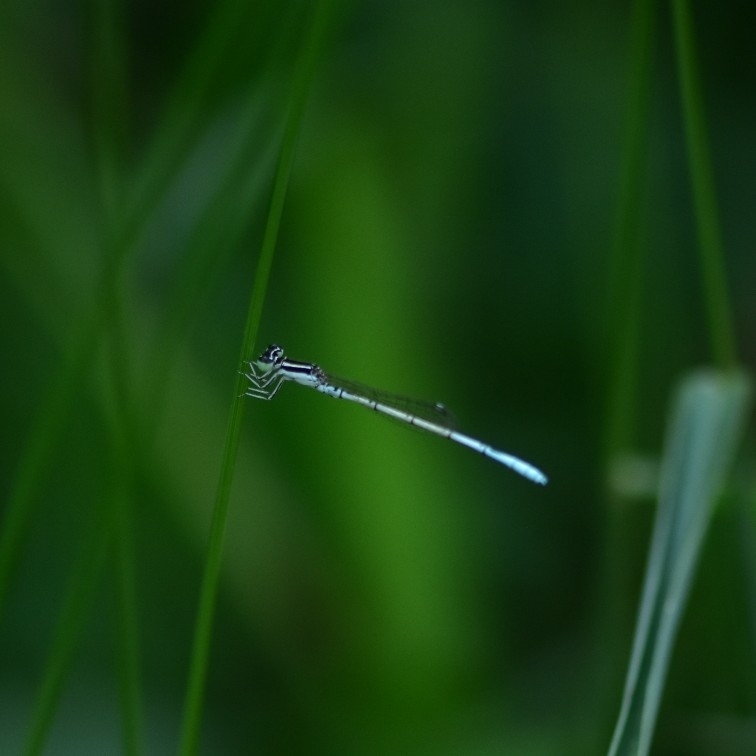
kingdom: Animalia
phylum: Arthropoda
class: Insecta
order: Odonata
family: Coenagrionidae
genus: Agriocnemis
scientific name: Agriocnemis pieris
